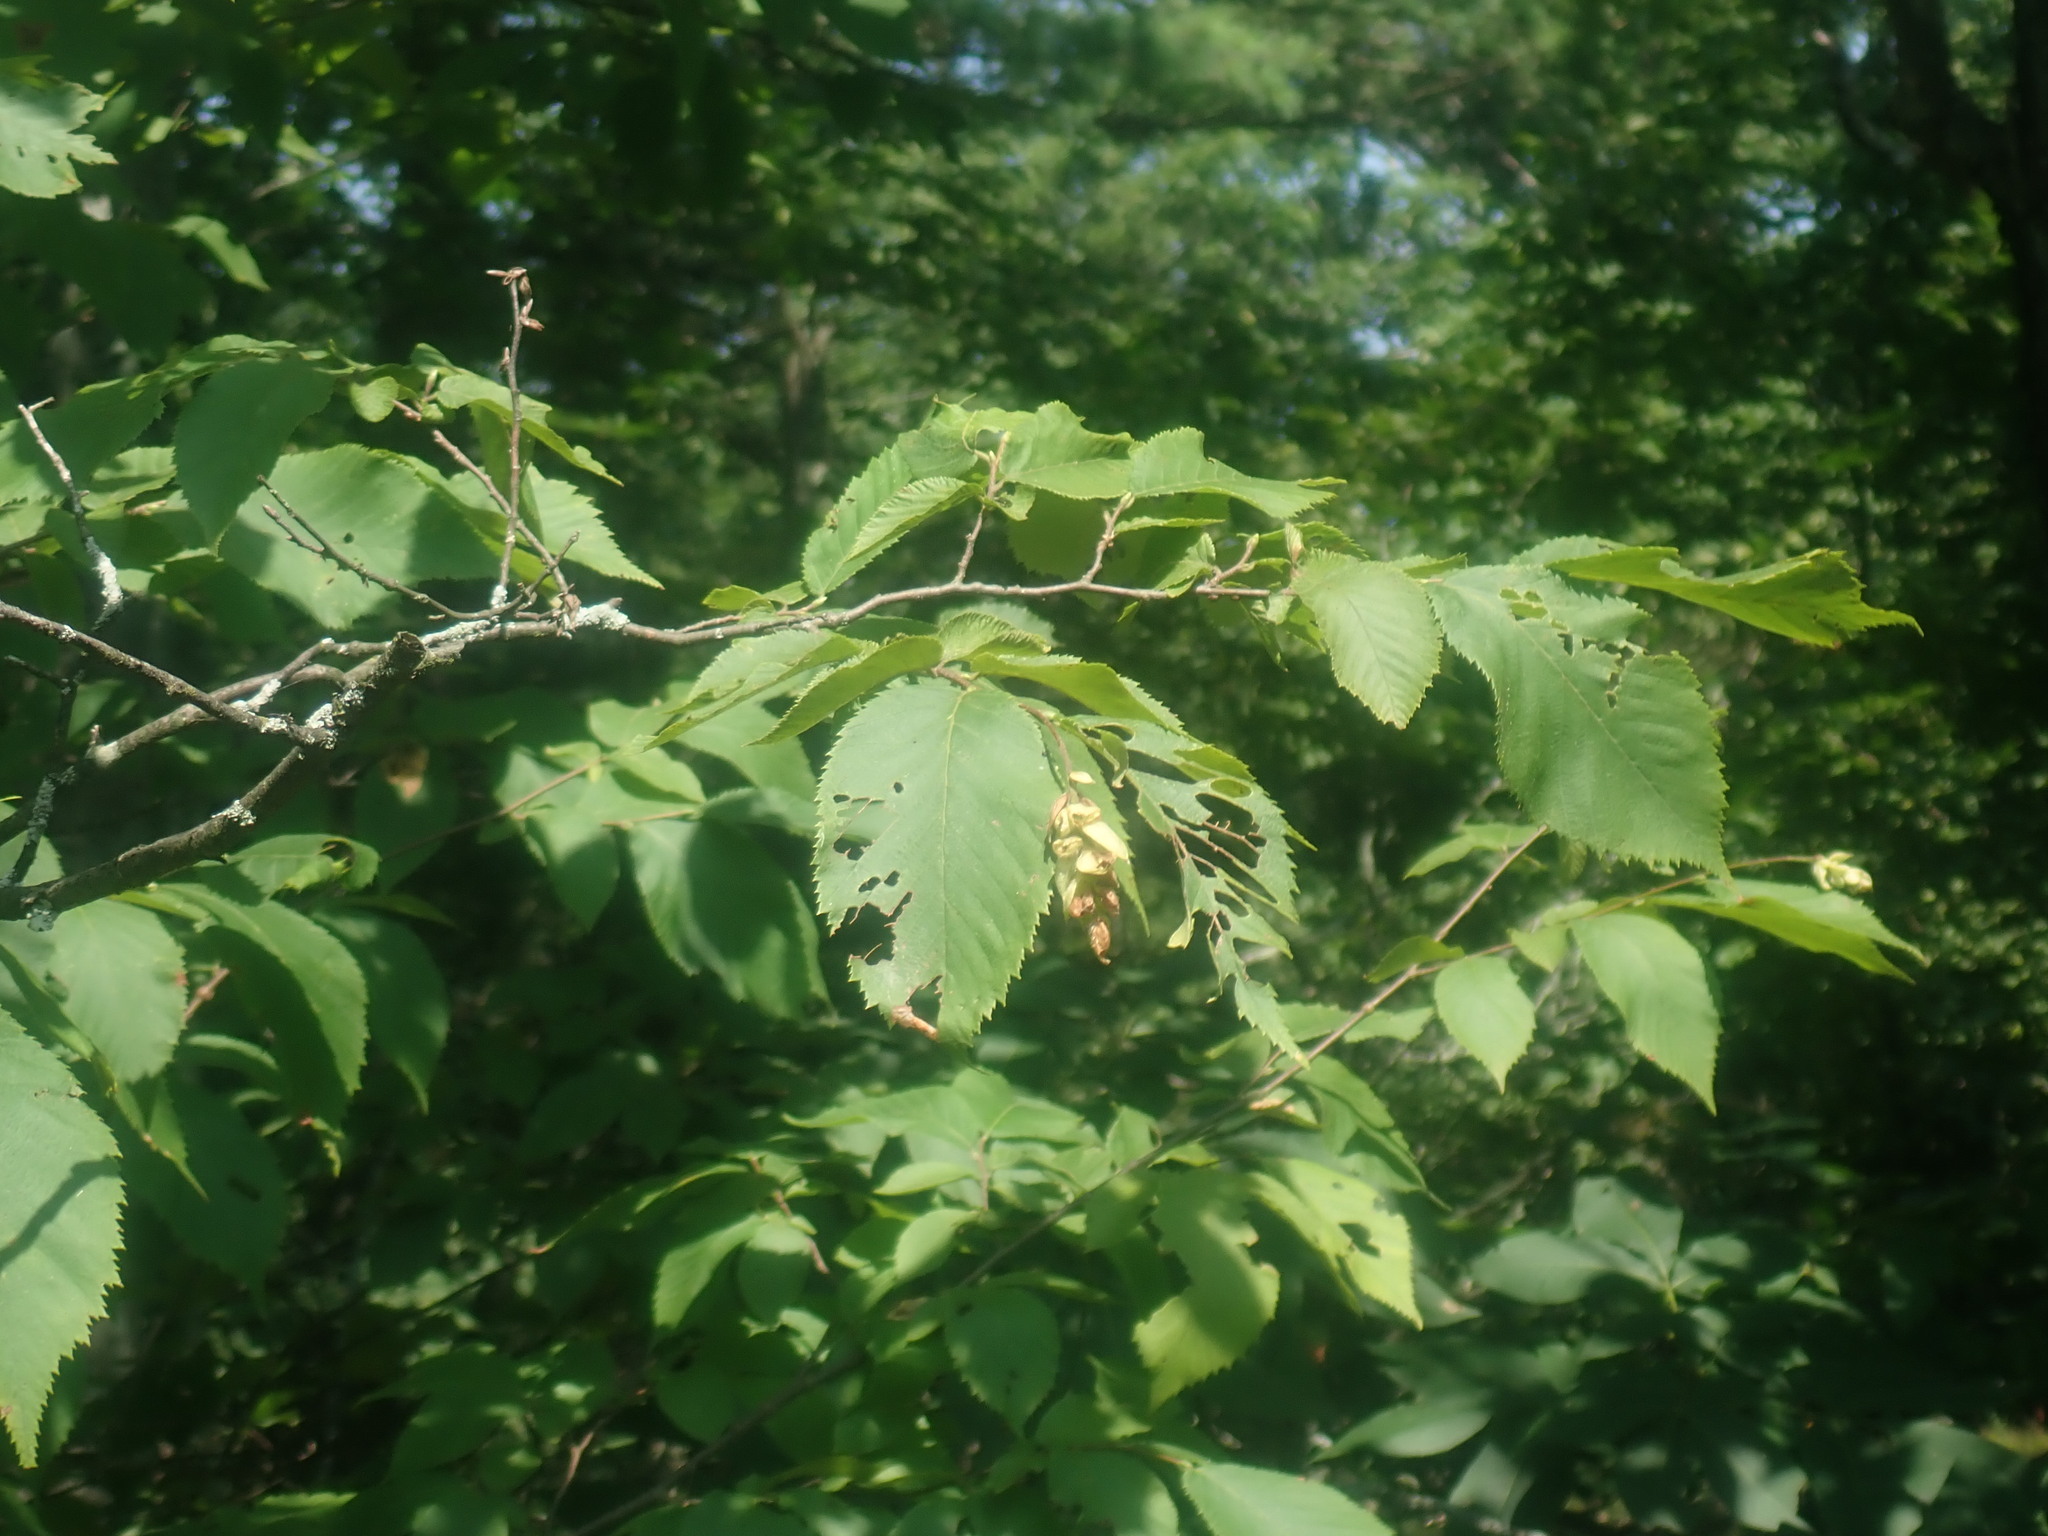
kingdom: Plantae
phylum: Tracheophyta
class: Magnoliopsida
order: Fagales
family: Betulaceae
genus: Ostrya
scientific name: Ostrya virginiana
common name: Ironwood
